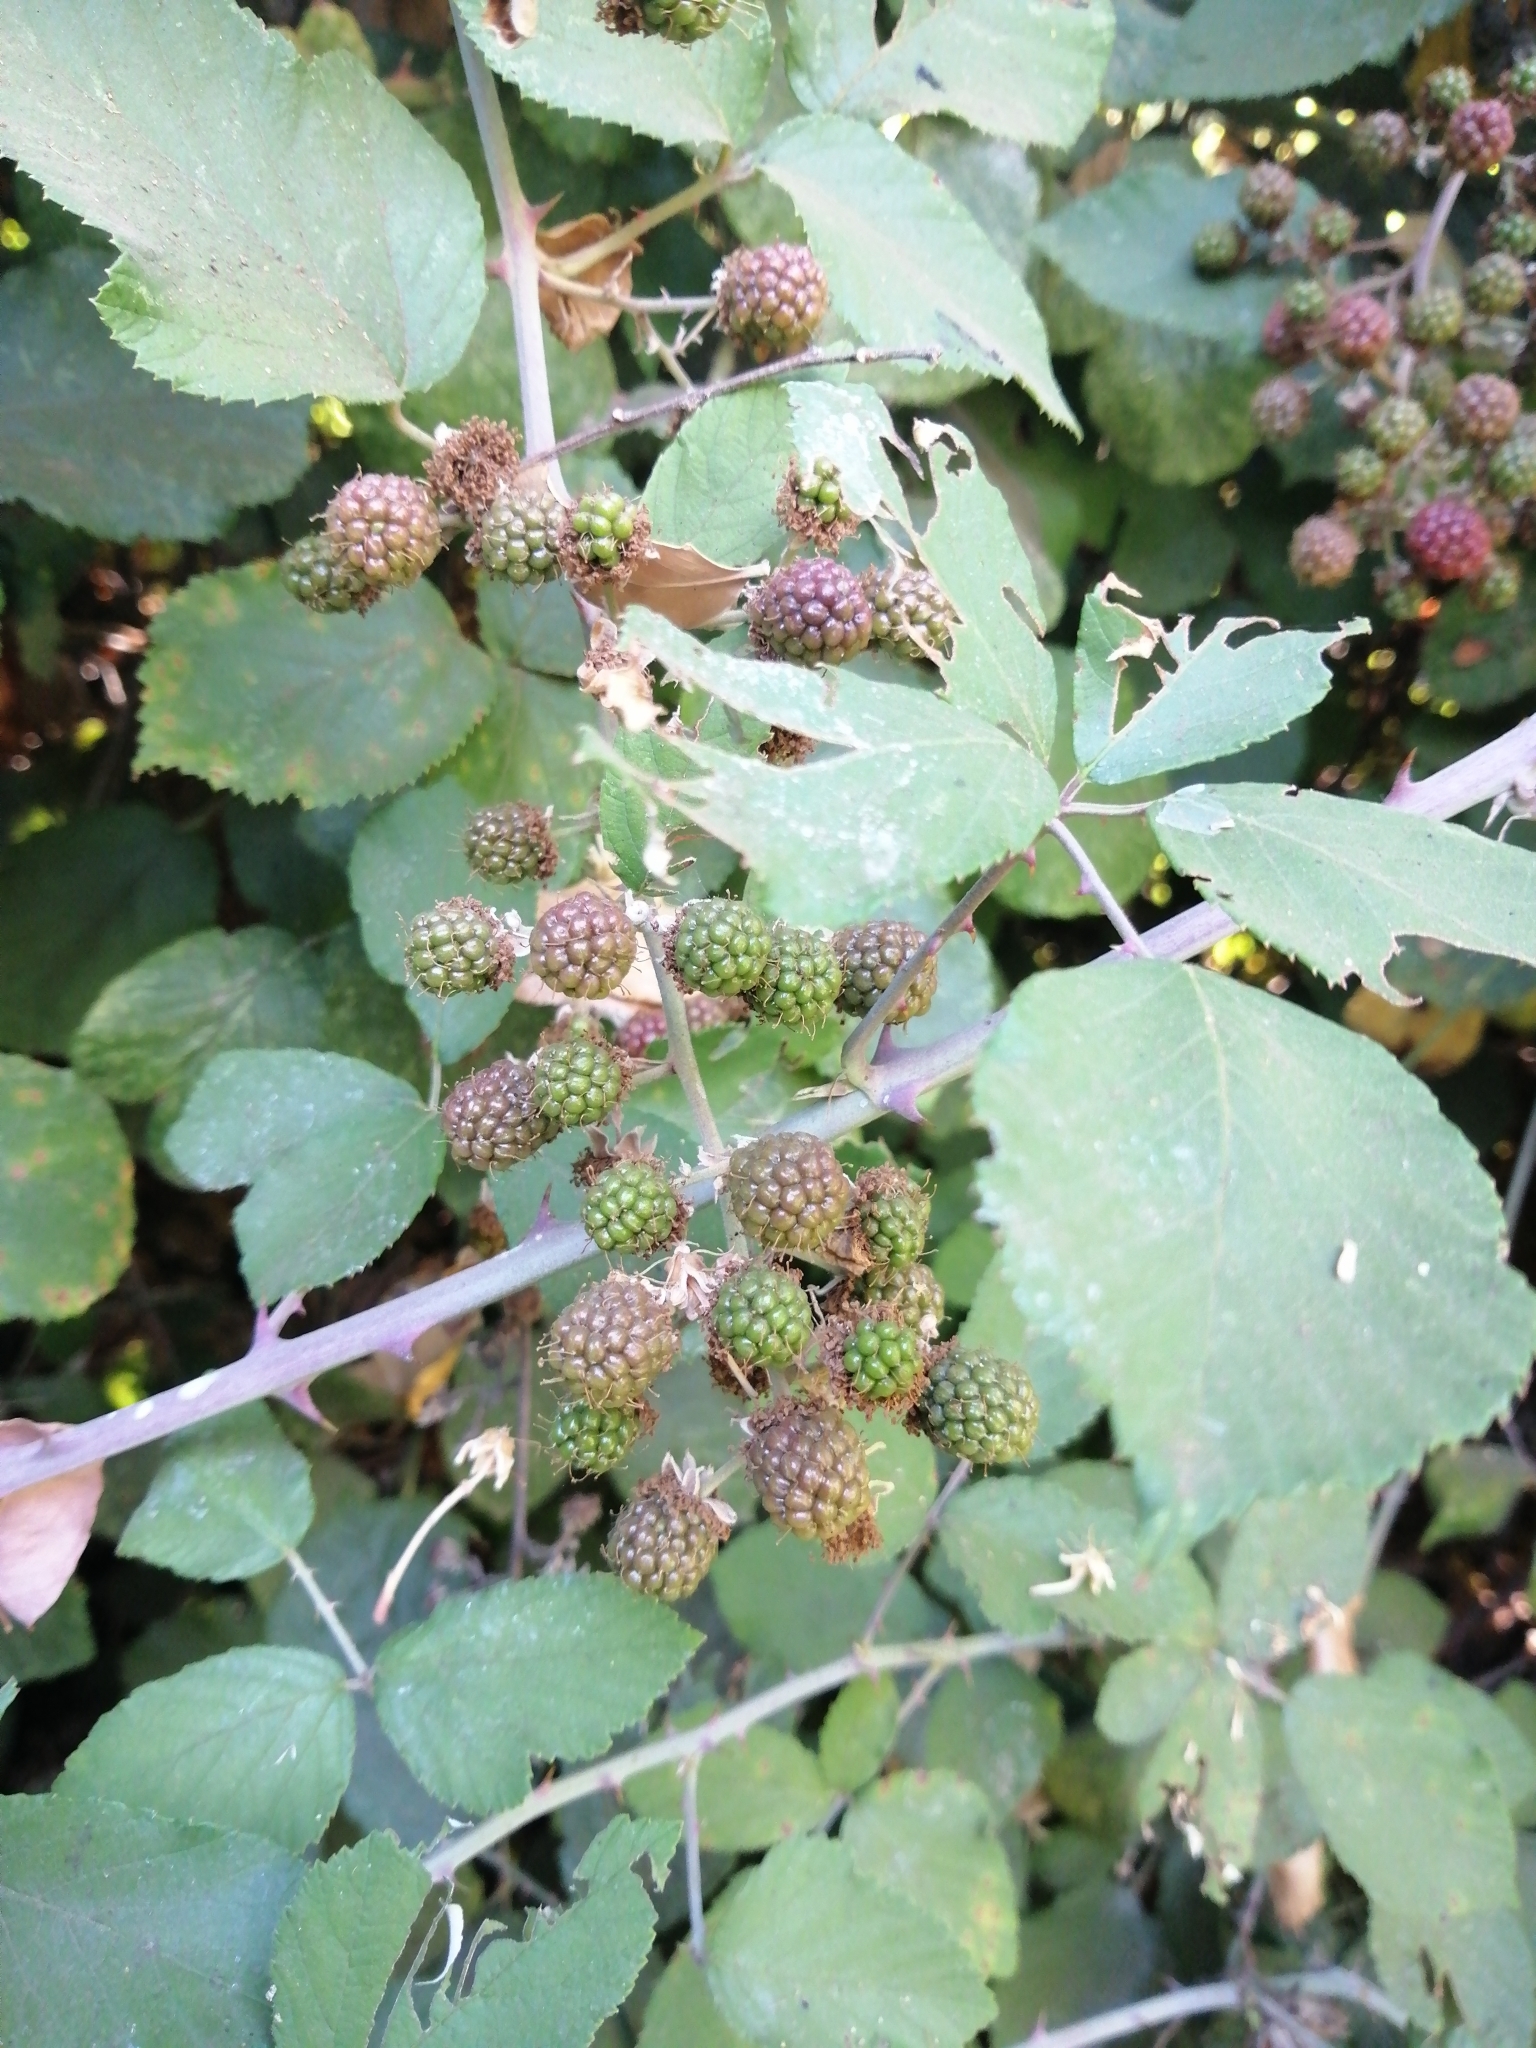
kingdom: Plantae
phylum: Tracheophyta
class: Magnoliopsida
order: Rosales
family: Rosaceae
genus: Rubus
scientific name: Rubus ulmifolius
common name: Elmleaf blackberry
